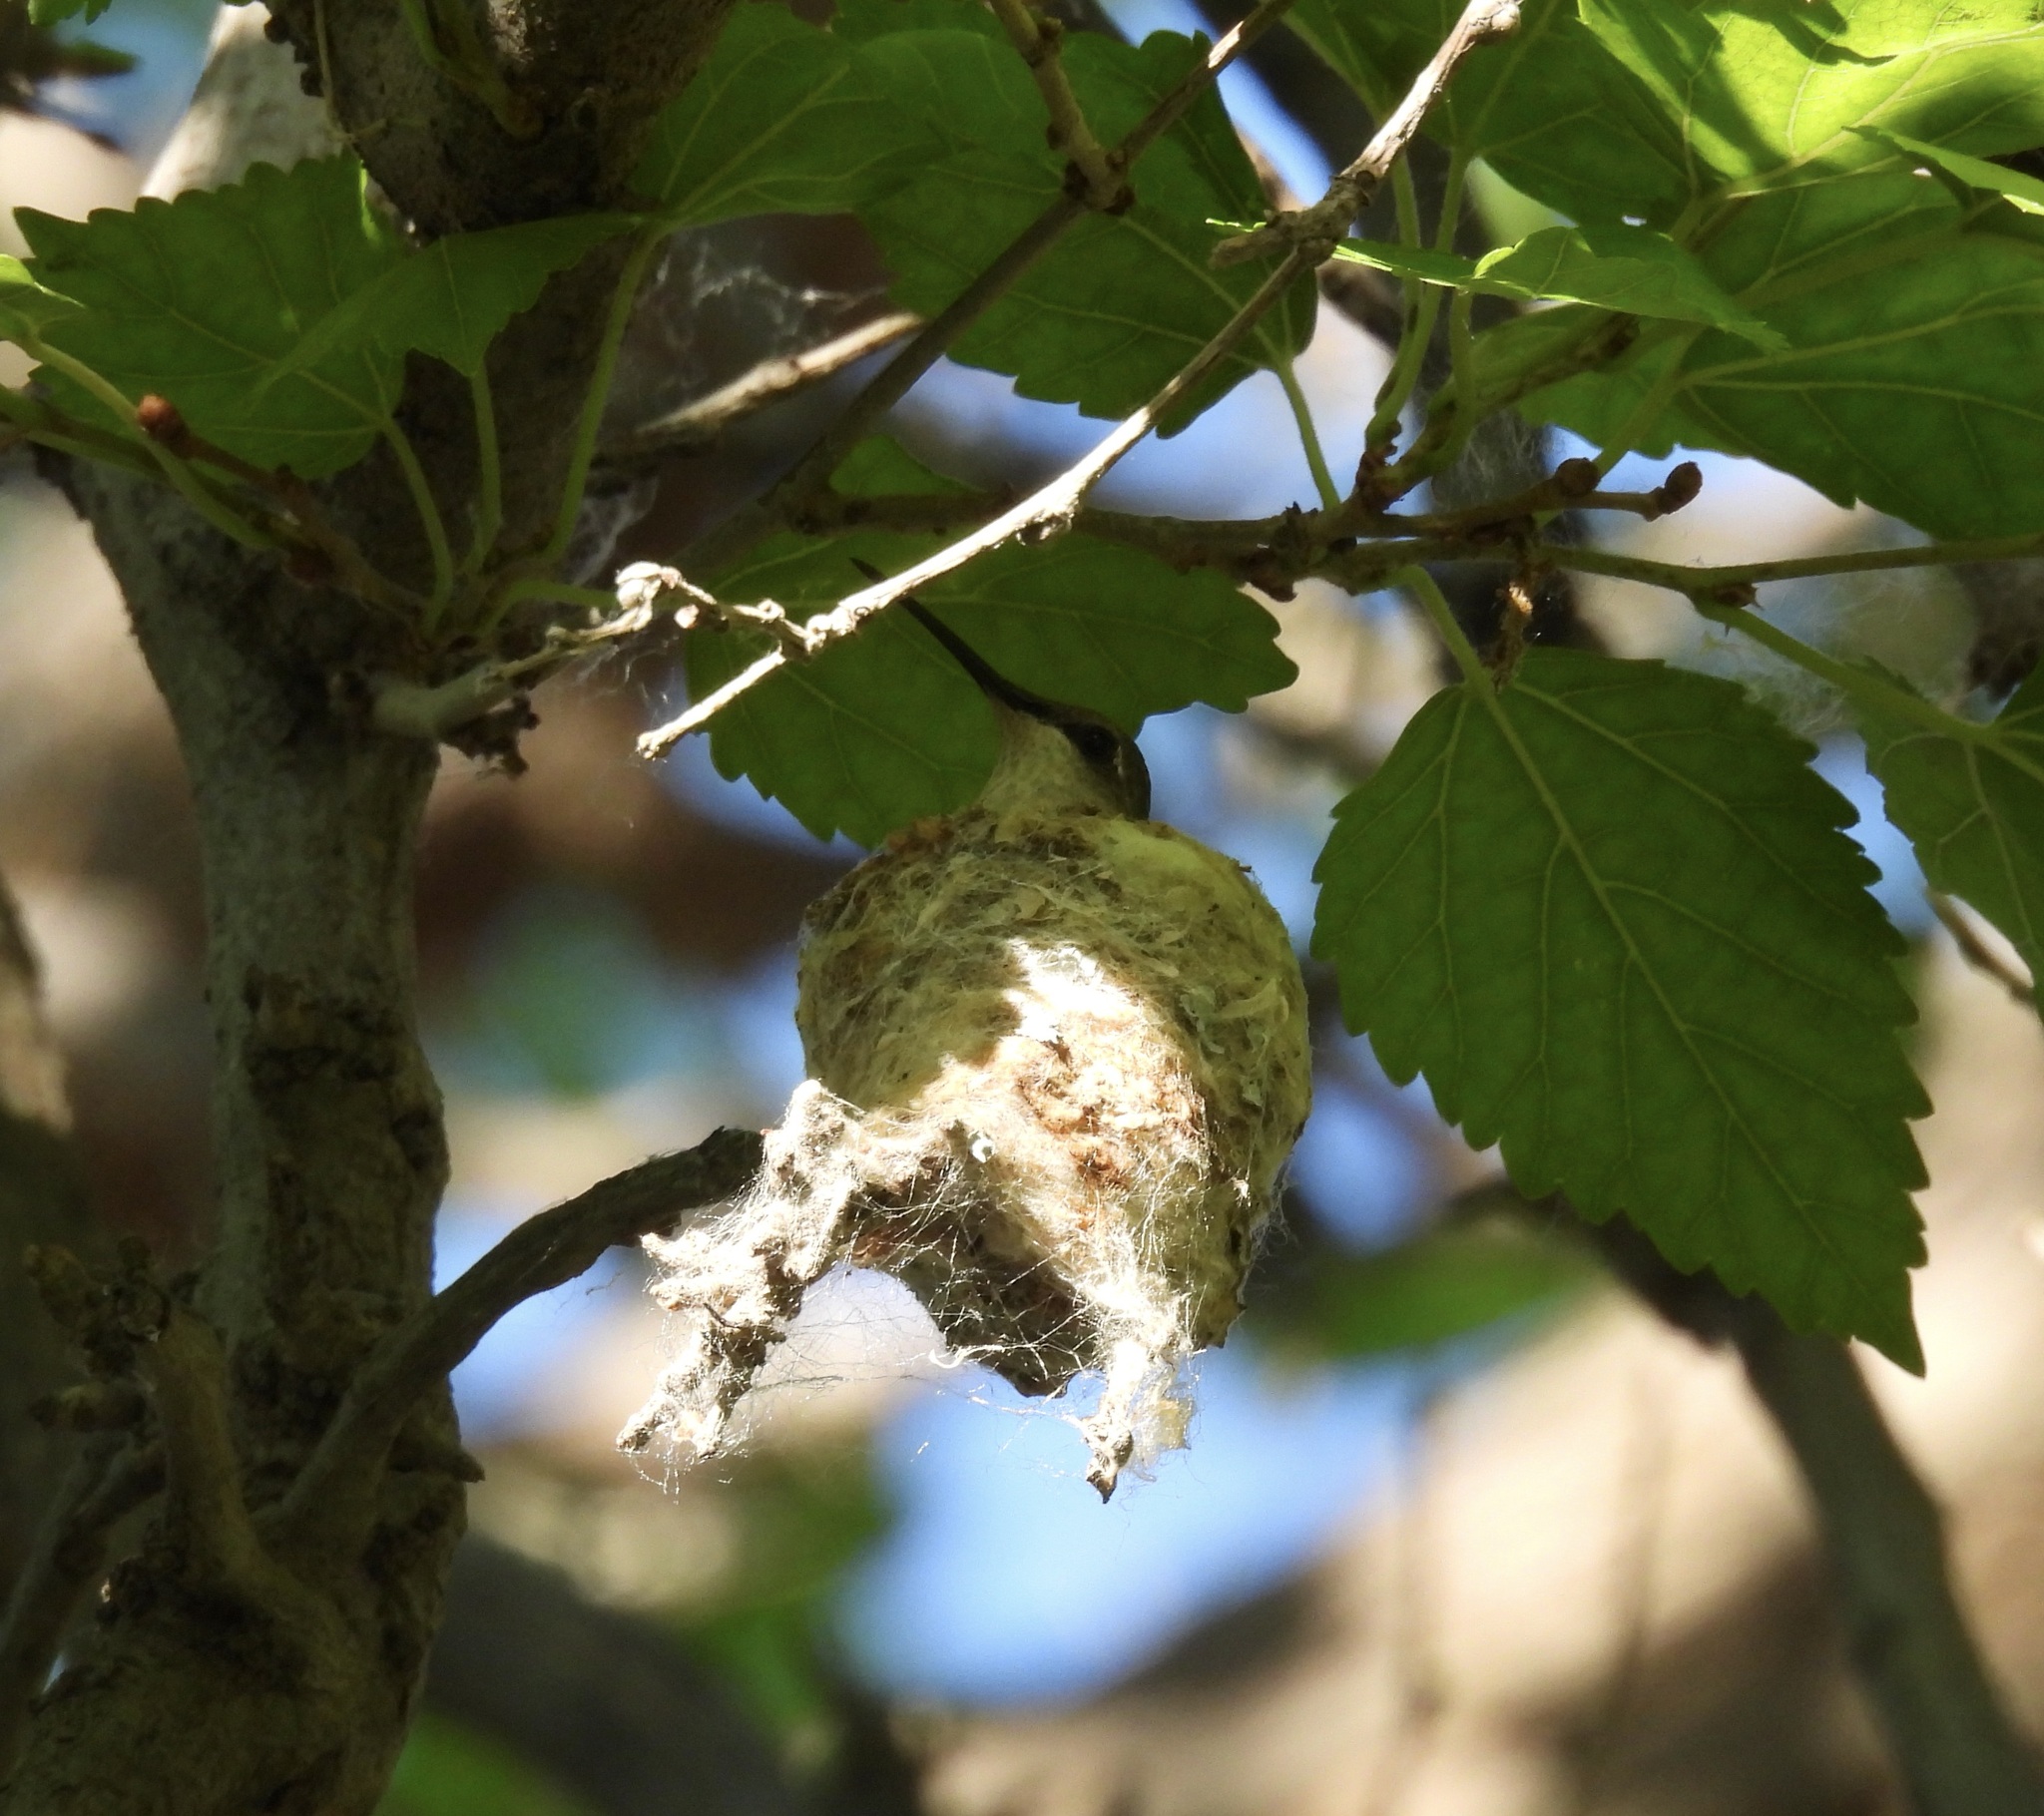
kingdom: Animalia
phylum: Chordata
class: Aves
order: Apodiformes
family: Trochilidae
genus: Archilochus
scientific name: Archilochus alexandri
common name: Black-chinned hummingbird
